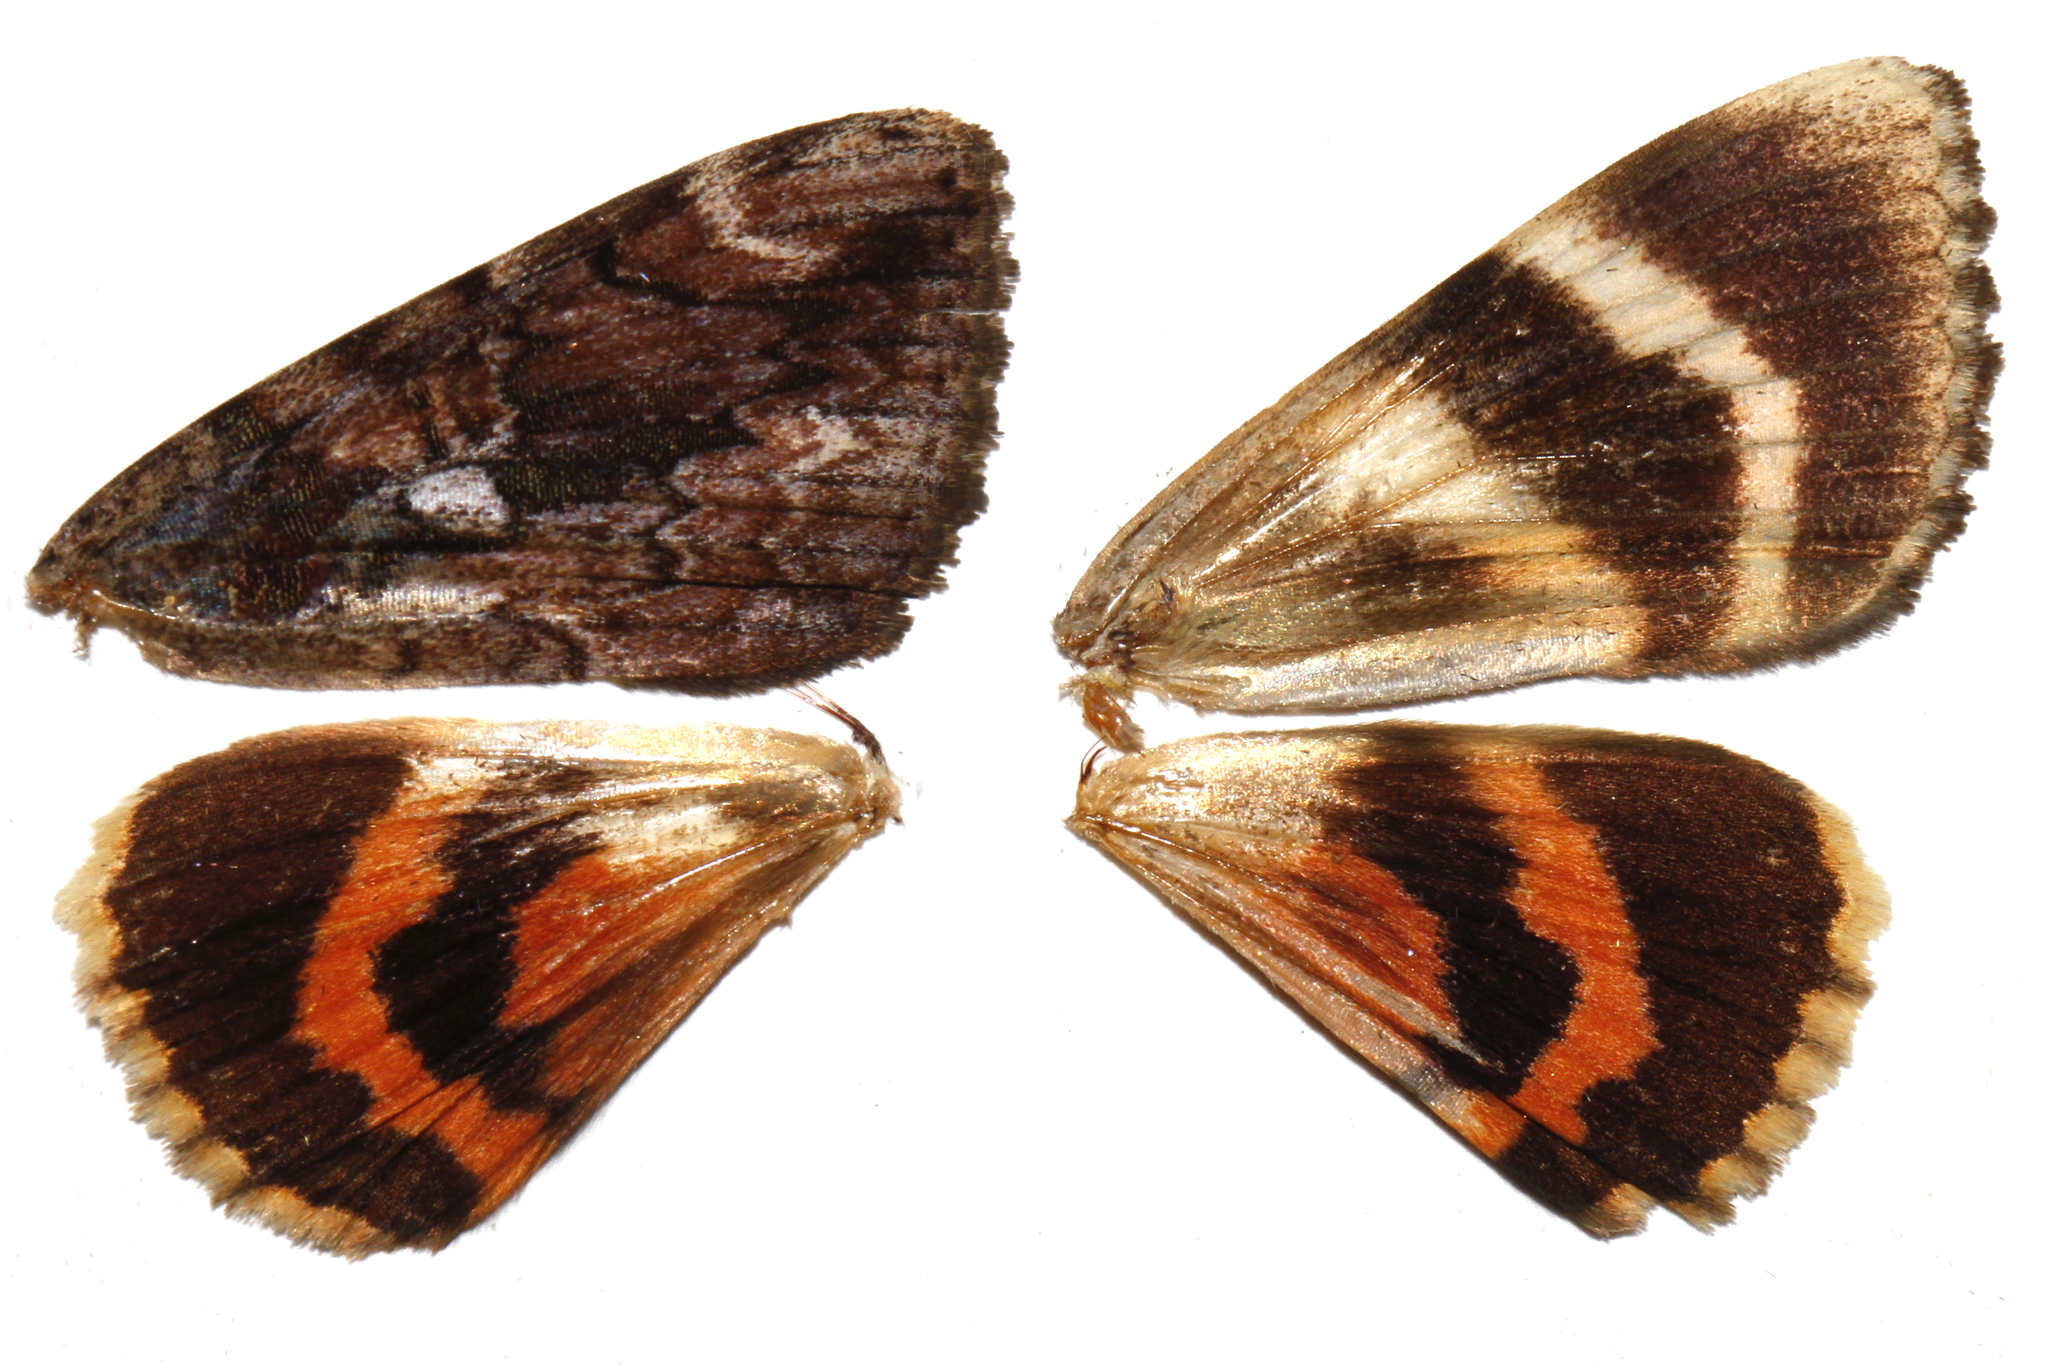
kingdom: Animalia
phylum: Arthropoda
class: Insecta
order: Lepidoptera
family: Erebidae
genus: Catocala
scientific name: Catocala innubens
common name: Betrothed underwing
